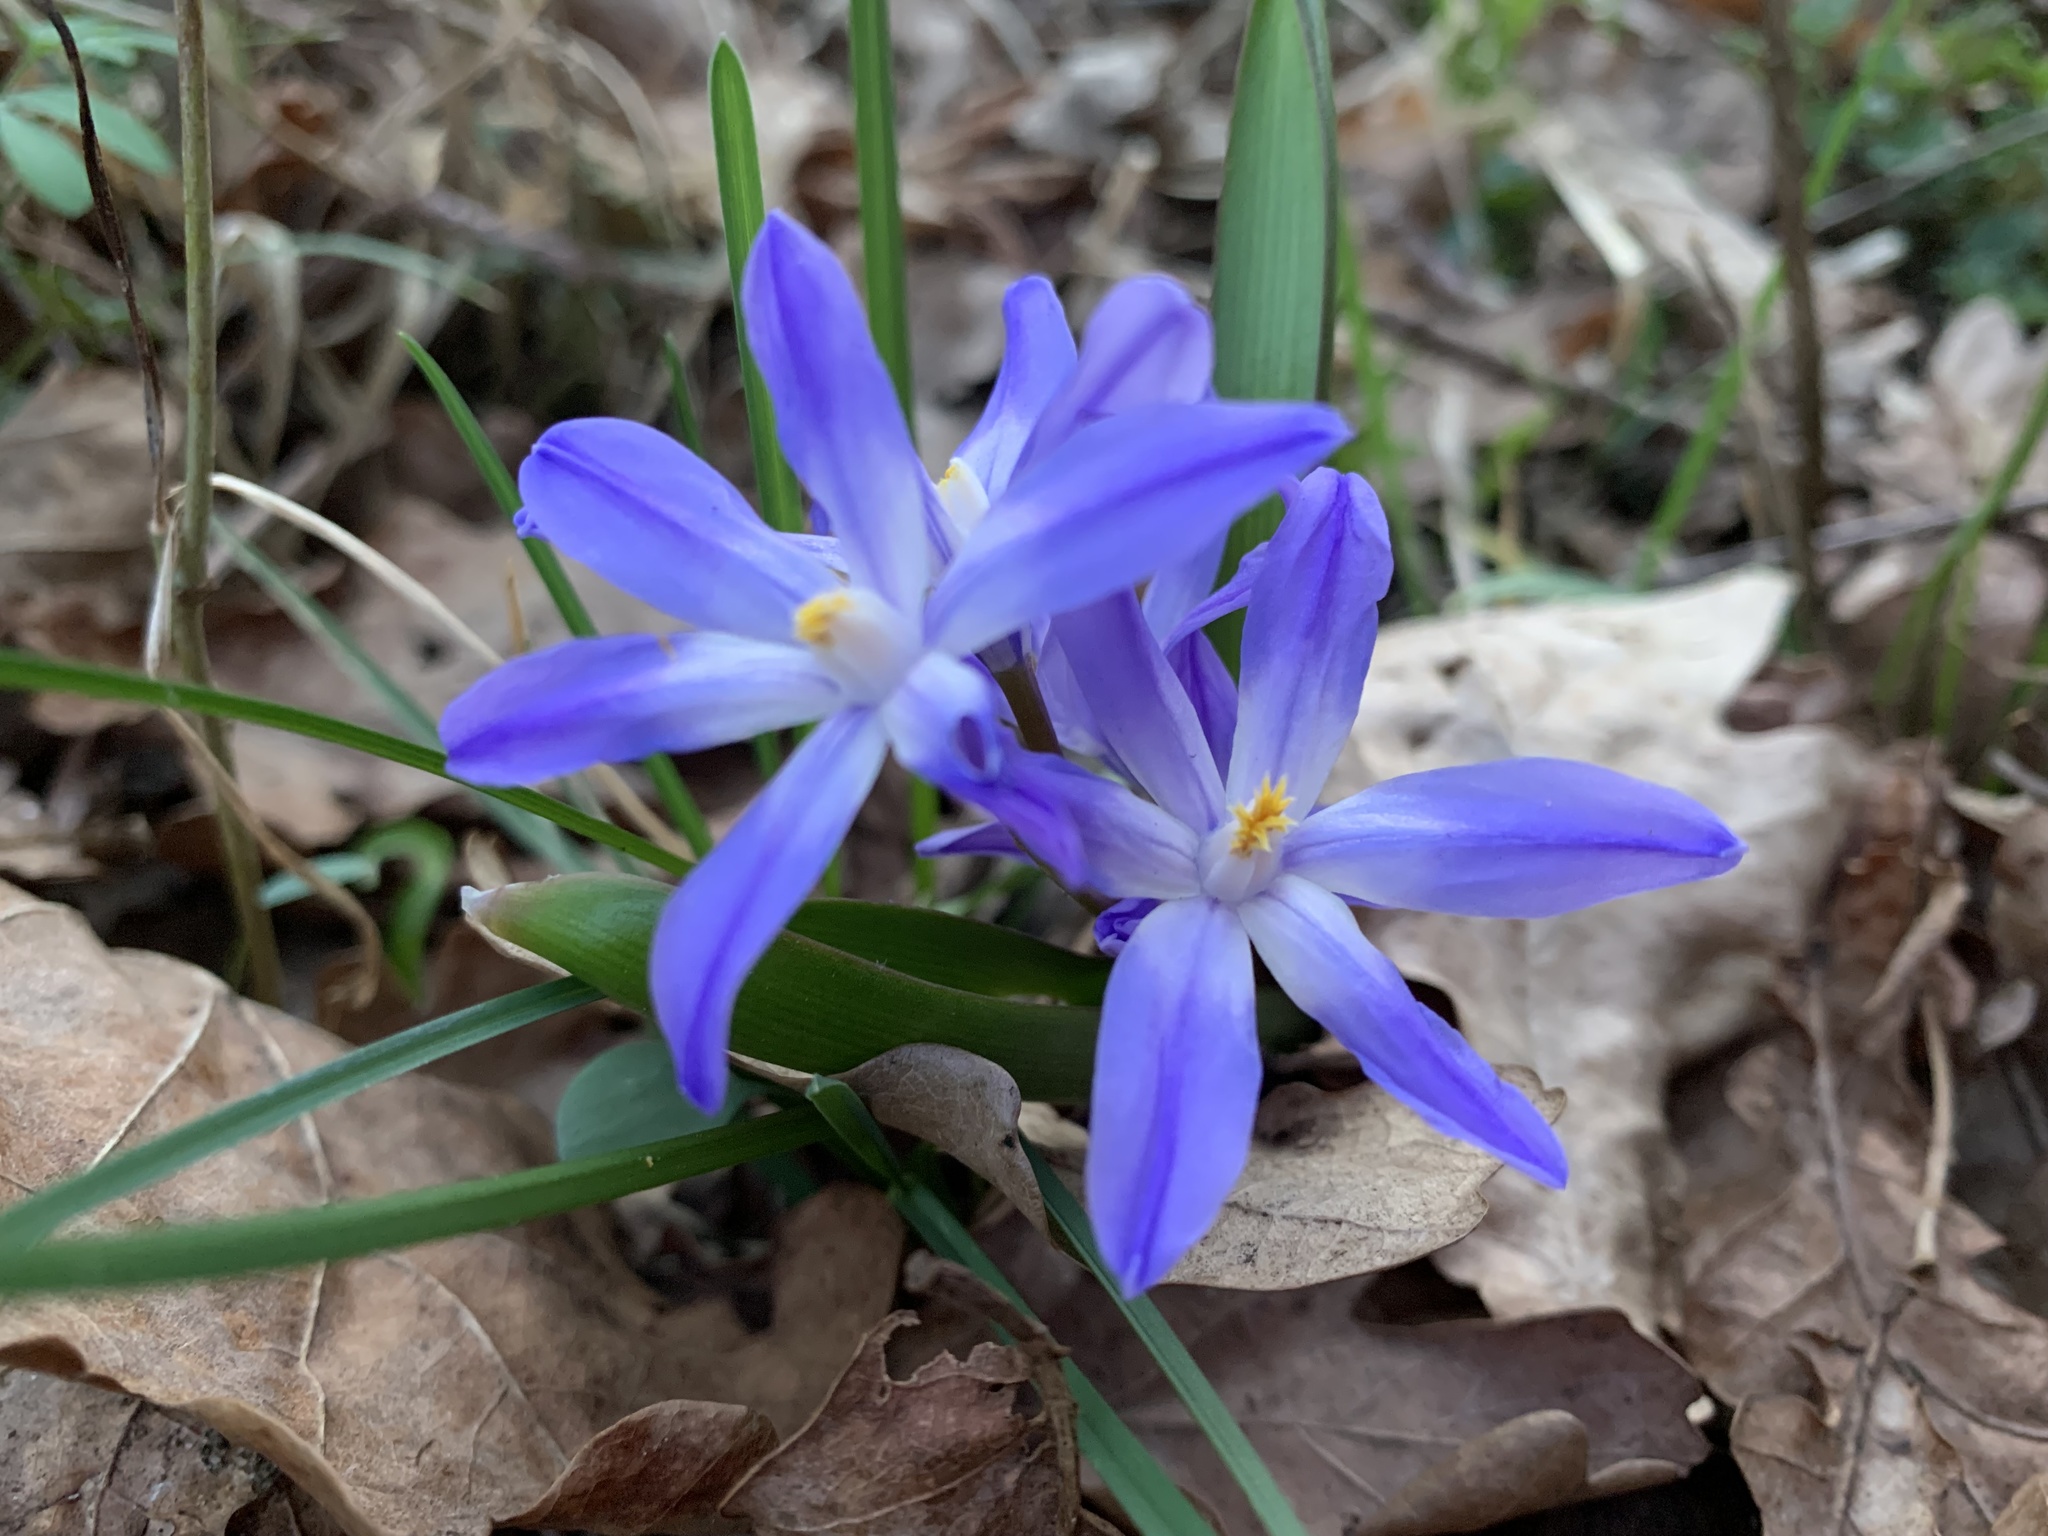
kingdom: Plantae
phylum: Tracheophyta
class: Liliopsida
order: Asparagales
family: Asparagaceae
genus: Scilla
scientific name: Scilla luciliae
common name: Boissier's glory-of-the-snow
